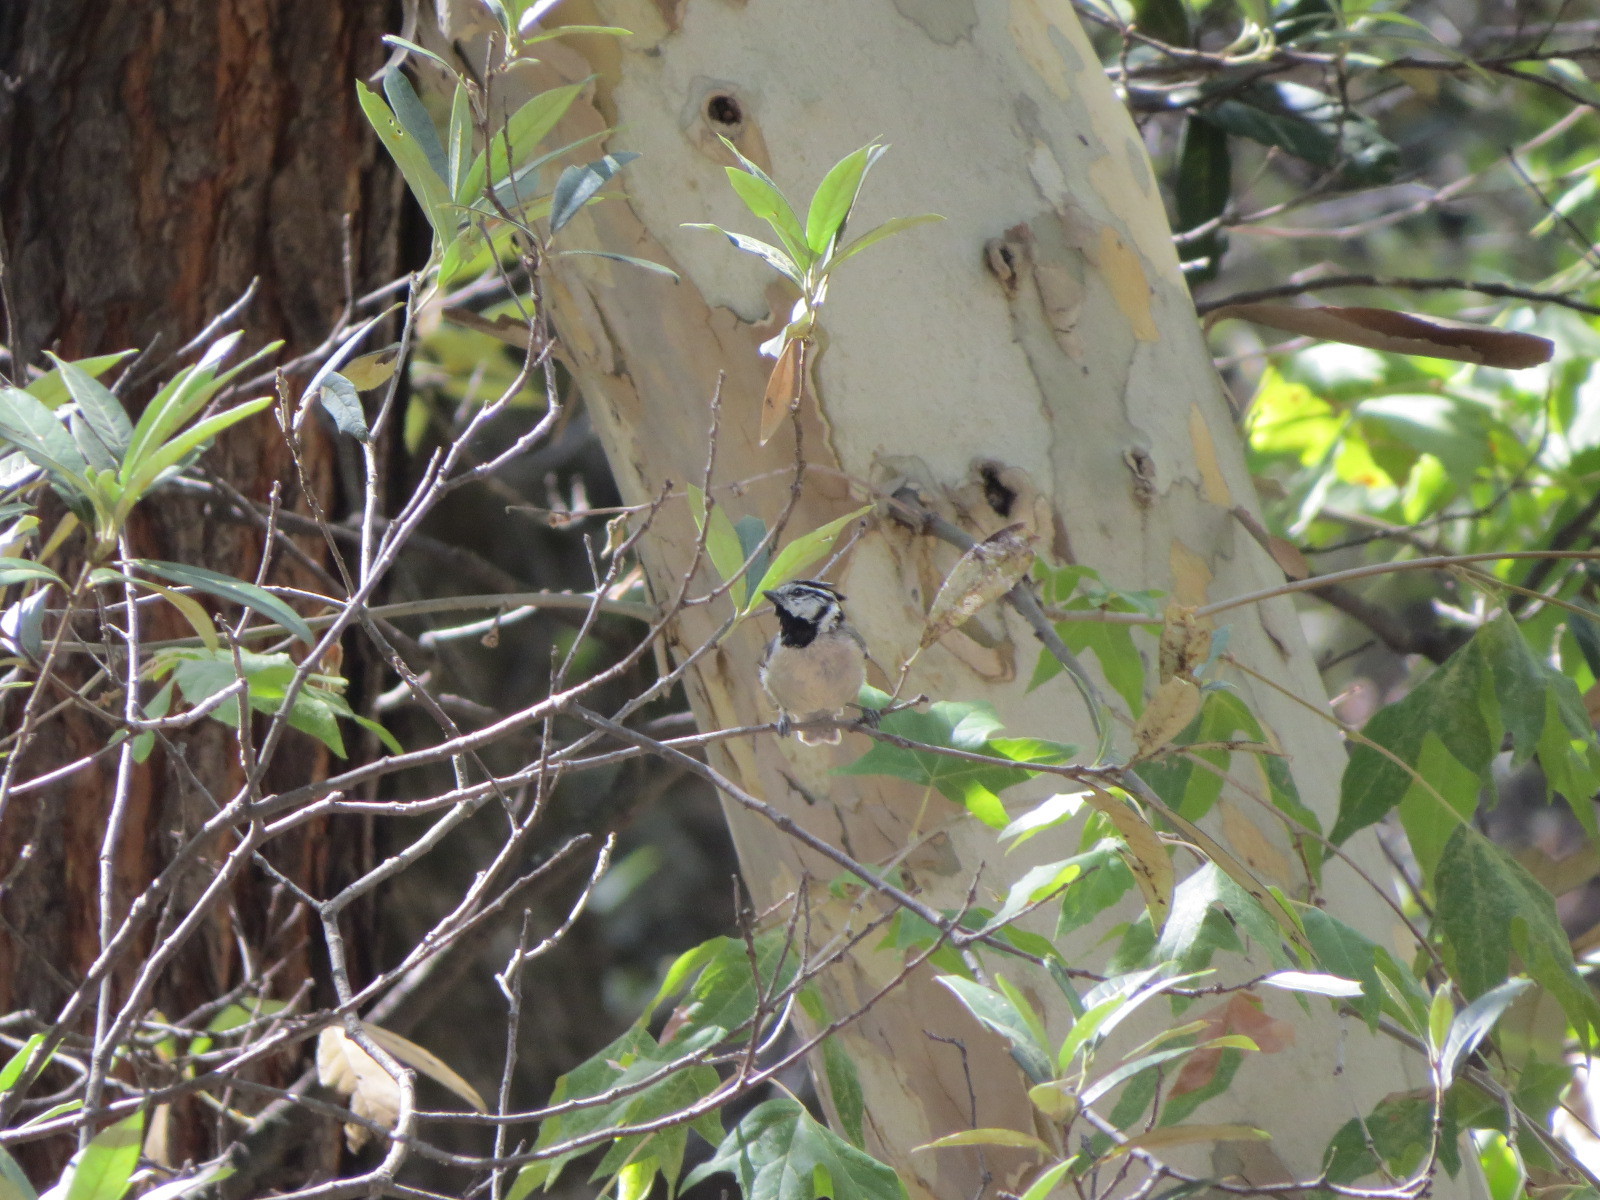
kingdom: Animalia
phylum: Chordata
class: Aves
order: Passeriformes
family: Paridae
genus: Baeolophus
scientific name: Baeolophus wollweberi
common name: Bridled titmouse
